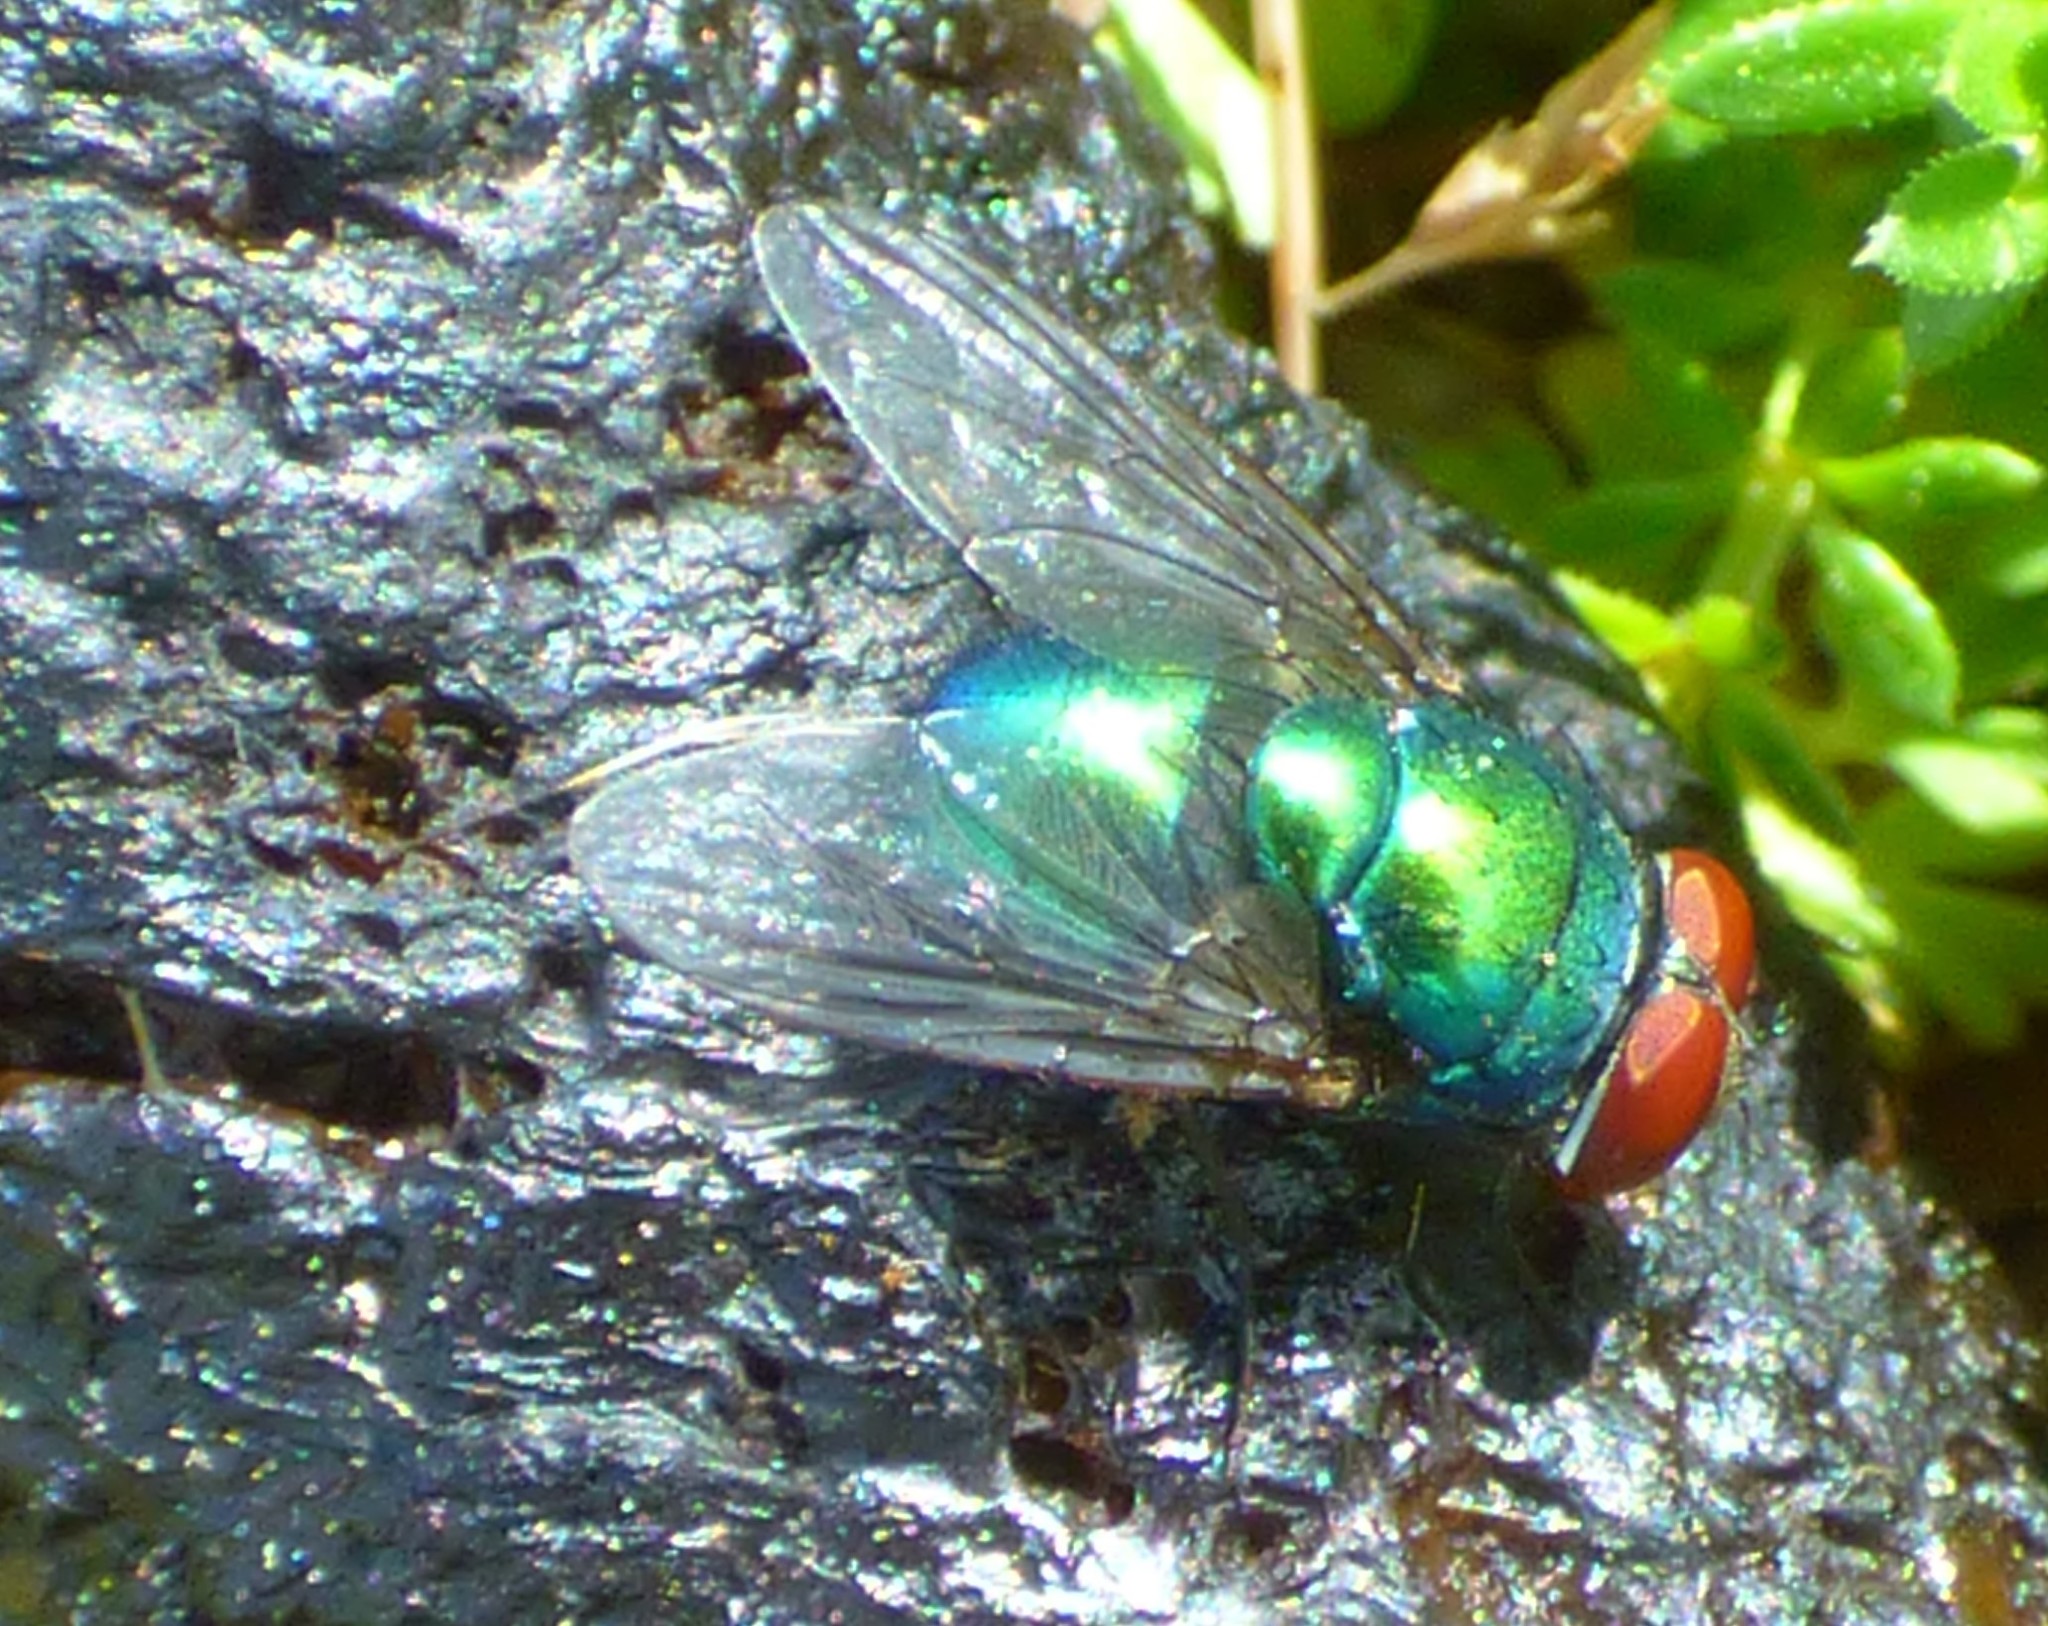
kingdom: Animalia
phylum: Arthropoda
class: Insecta
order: Diptera
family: Calliphoridae
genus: Lucilia
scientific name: Lucilia sericata
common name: Blow fly
